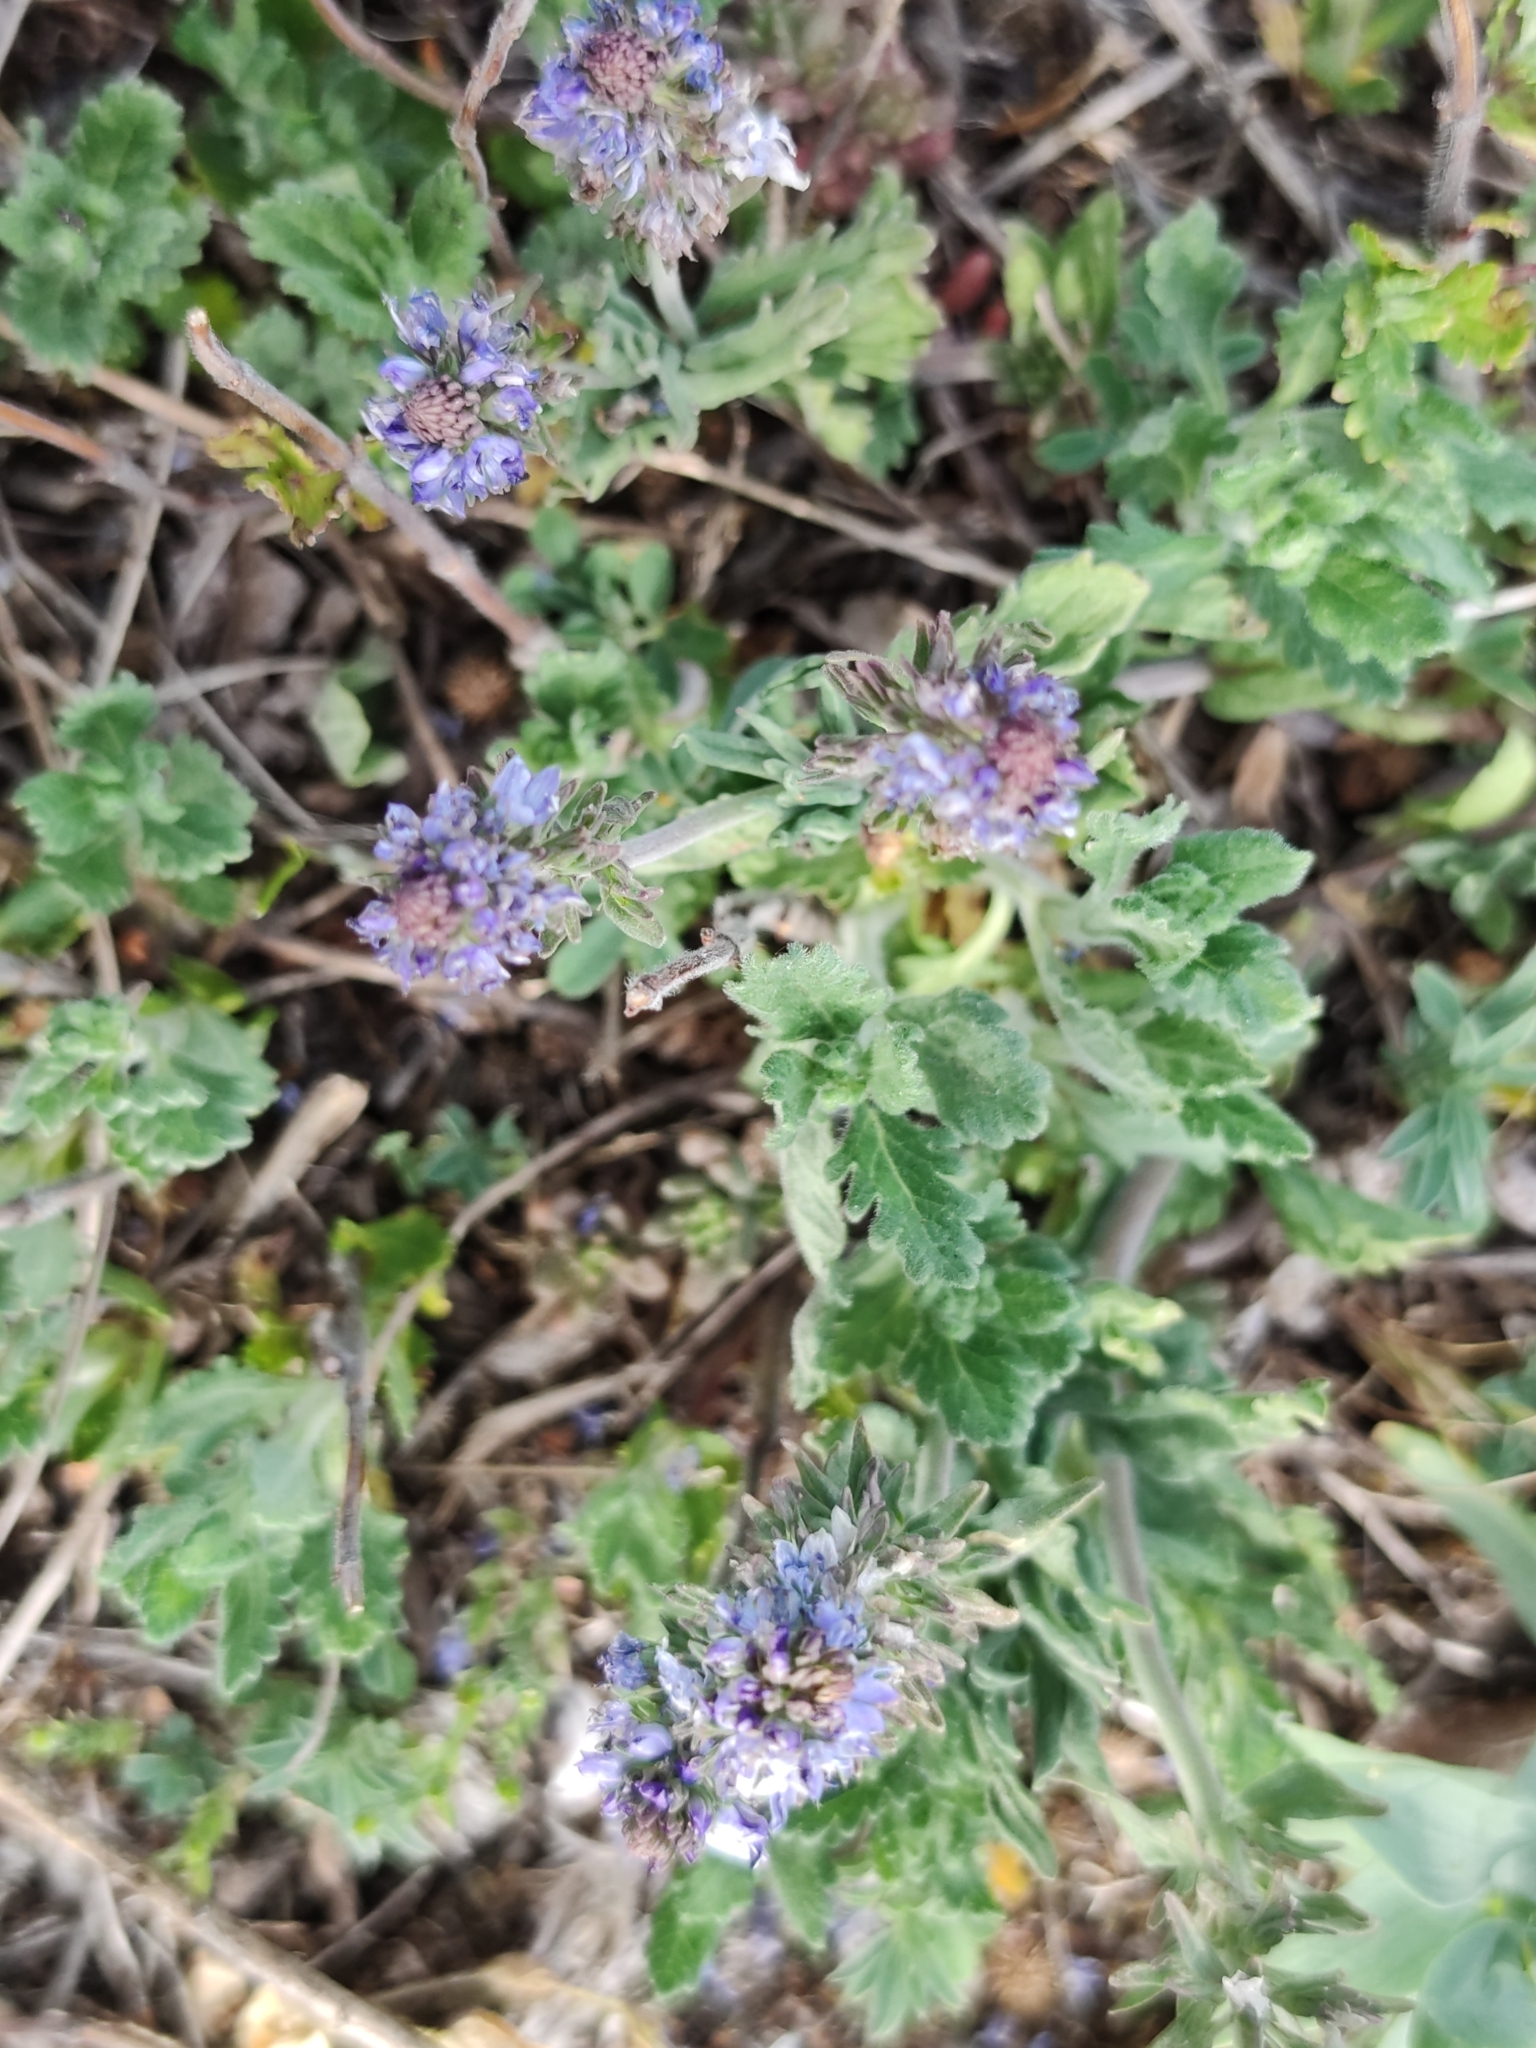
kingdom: Plantae
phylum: Tracheophyta
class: Magnoliopsida
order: Lamiales
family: Plantaginaceae
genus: Veronica
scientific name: Veronica austriaca
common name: Large speedwell
